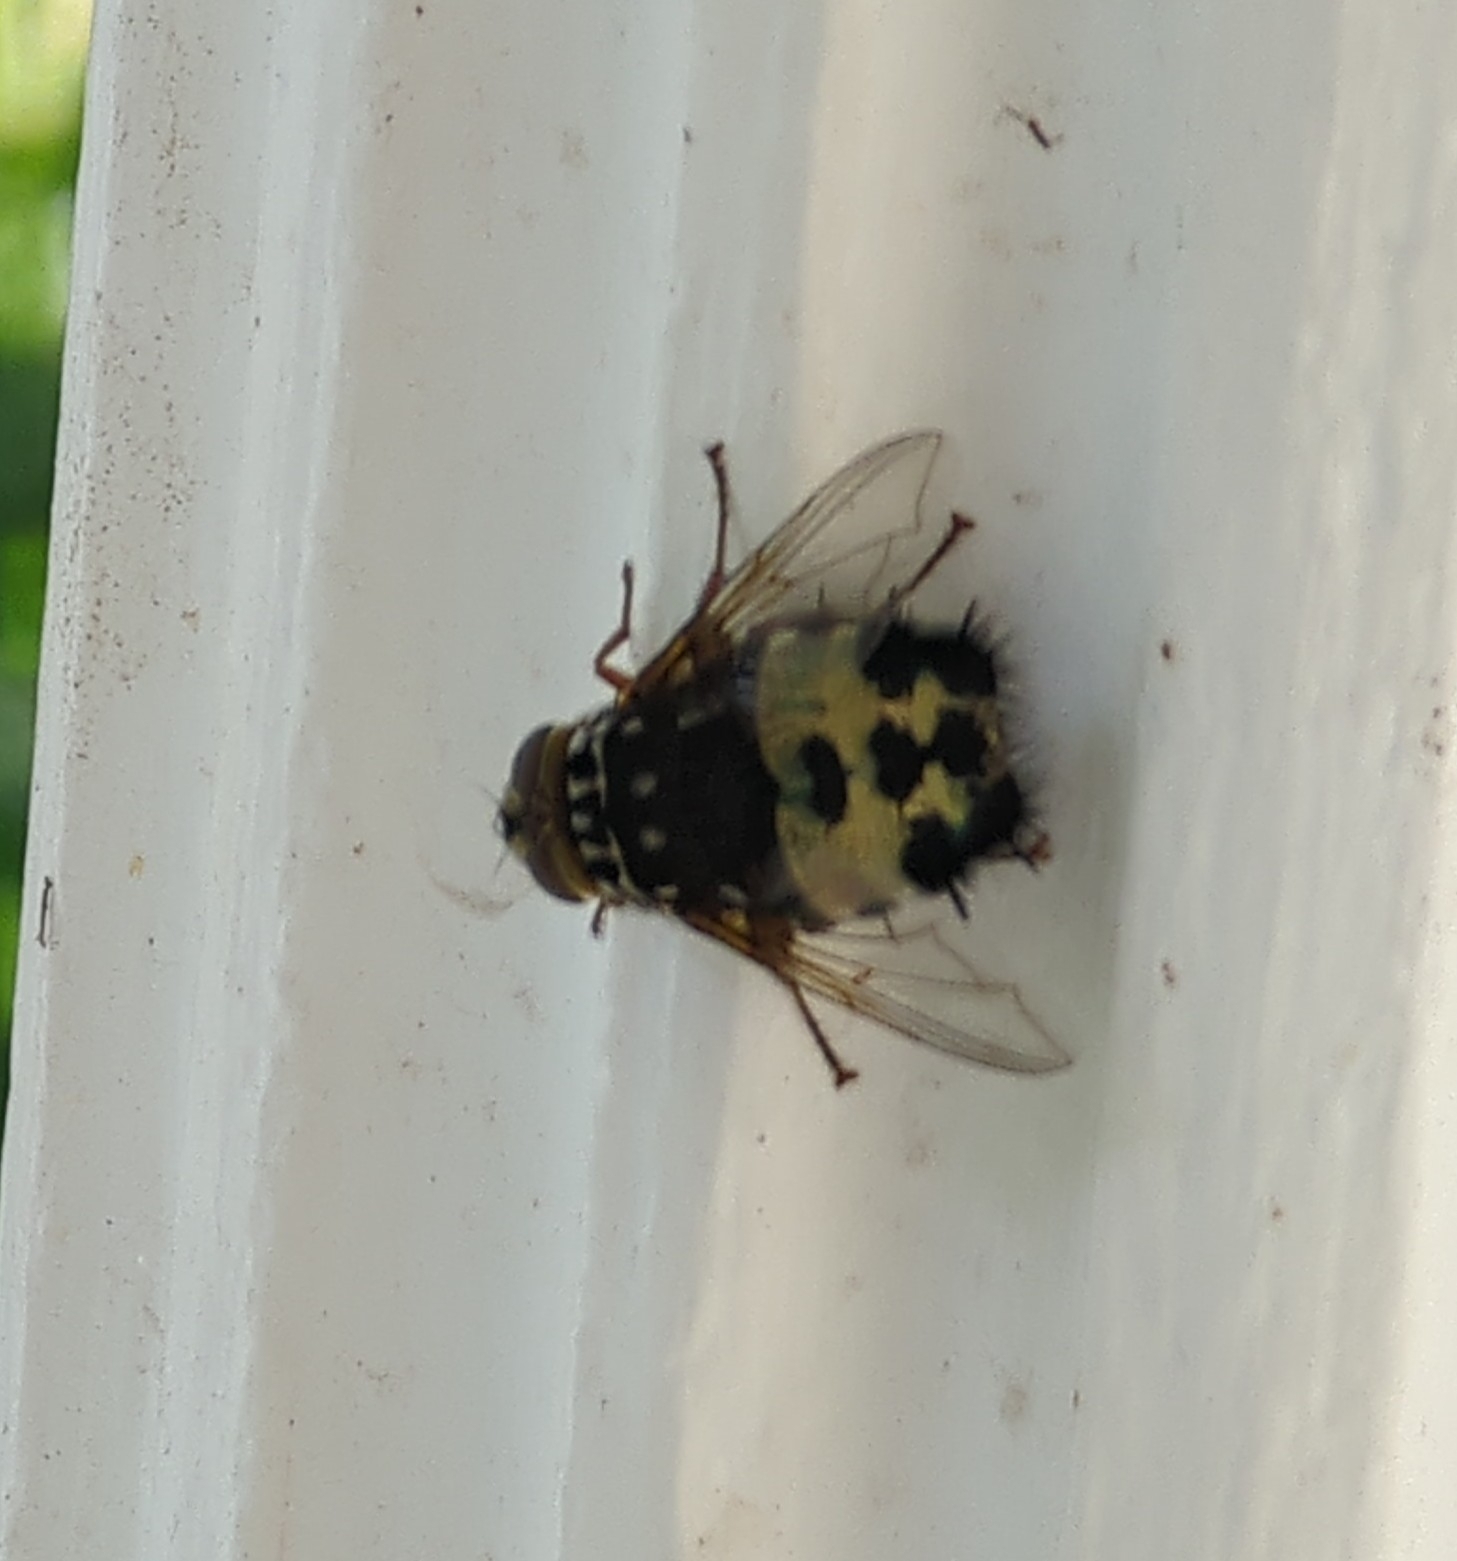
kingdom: Animalia
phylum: Arthropoda
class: Insecta
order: Diptera
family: Tachinidae
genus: Formosia
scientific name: Formosia speciosa
